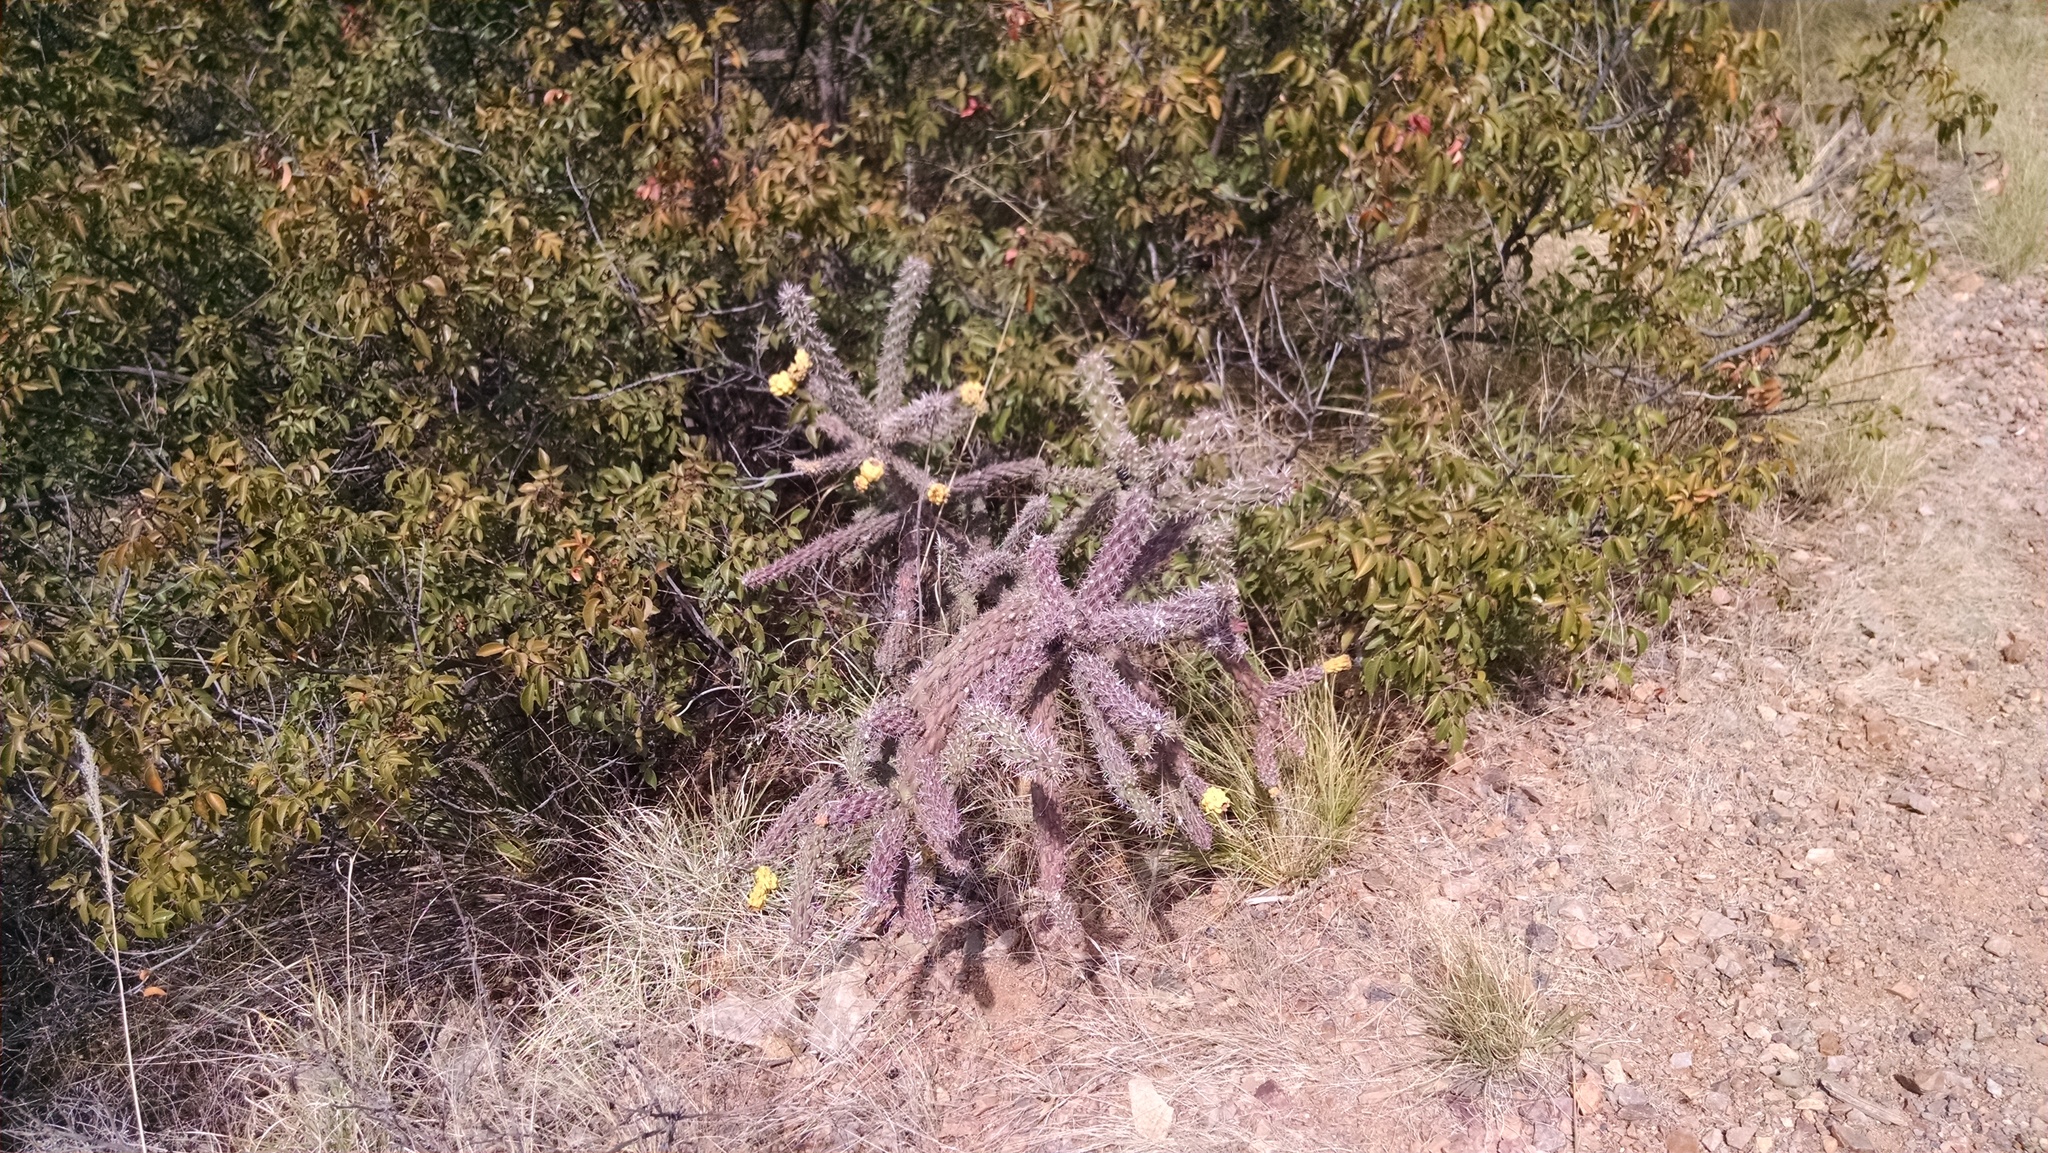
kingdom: Plantae
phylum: Tracheophyta
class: Magnoliopsida
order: Caryophyllales
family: Cactaceae
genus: Cylindropuntia
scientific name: Cylindropuntia imbricata
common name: Candelabrum cactus
